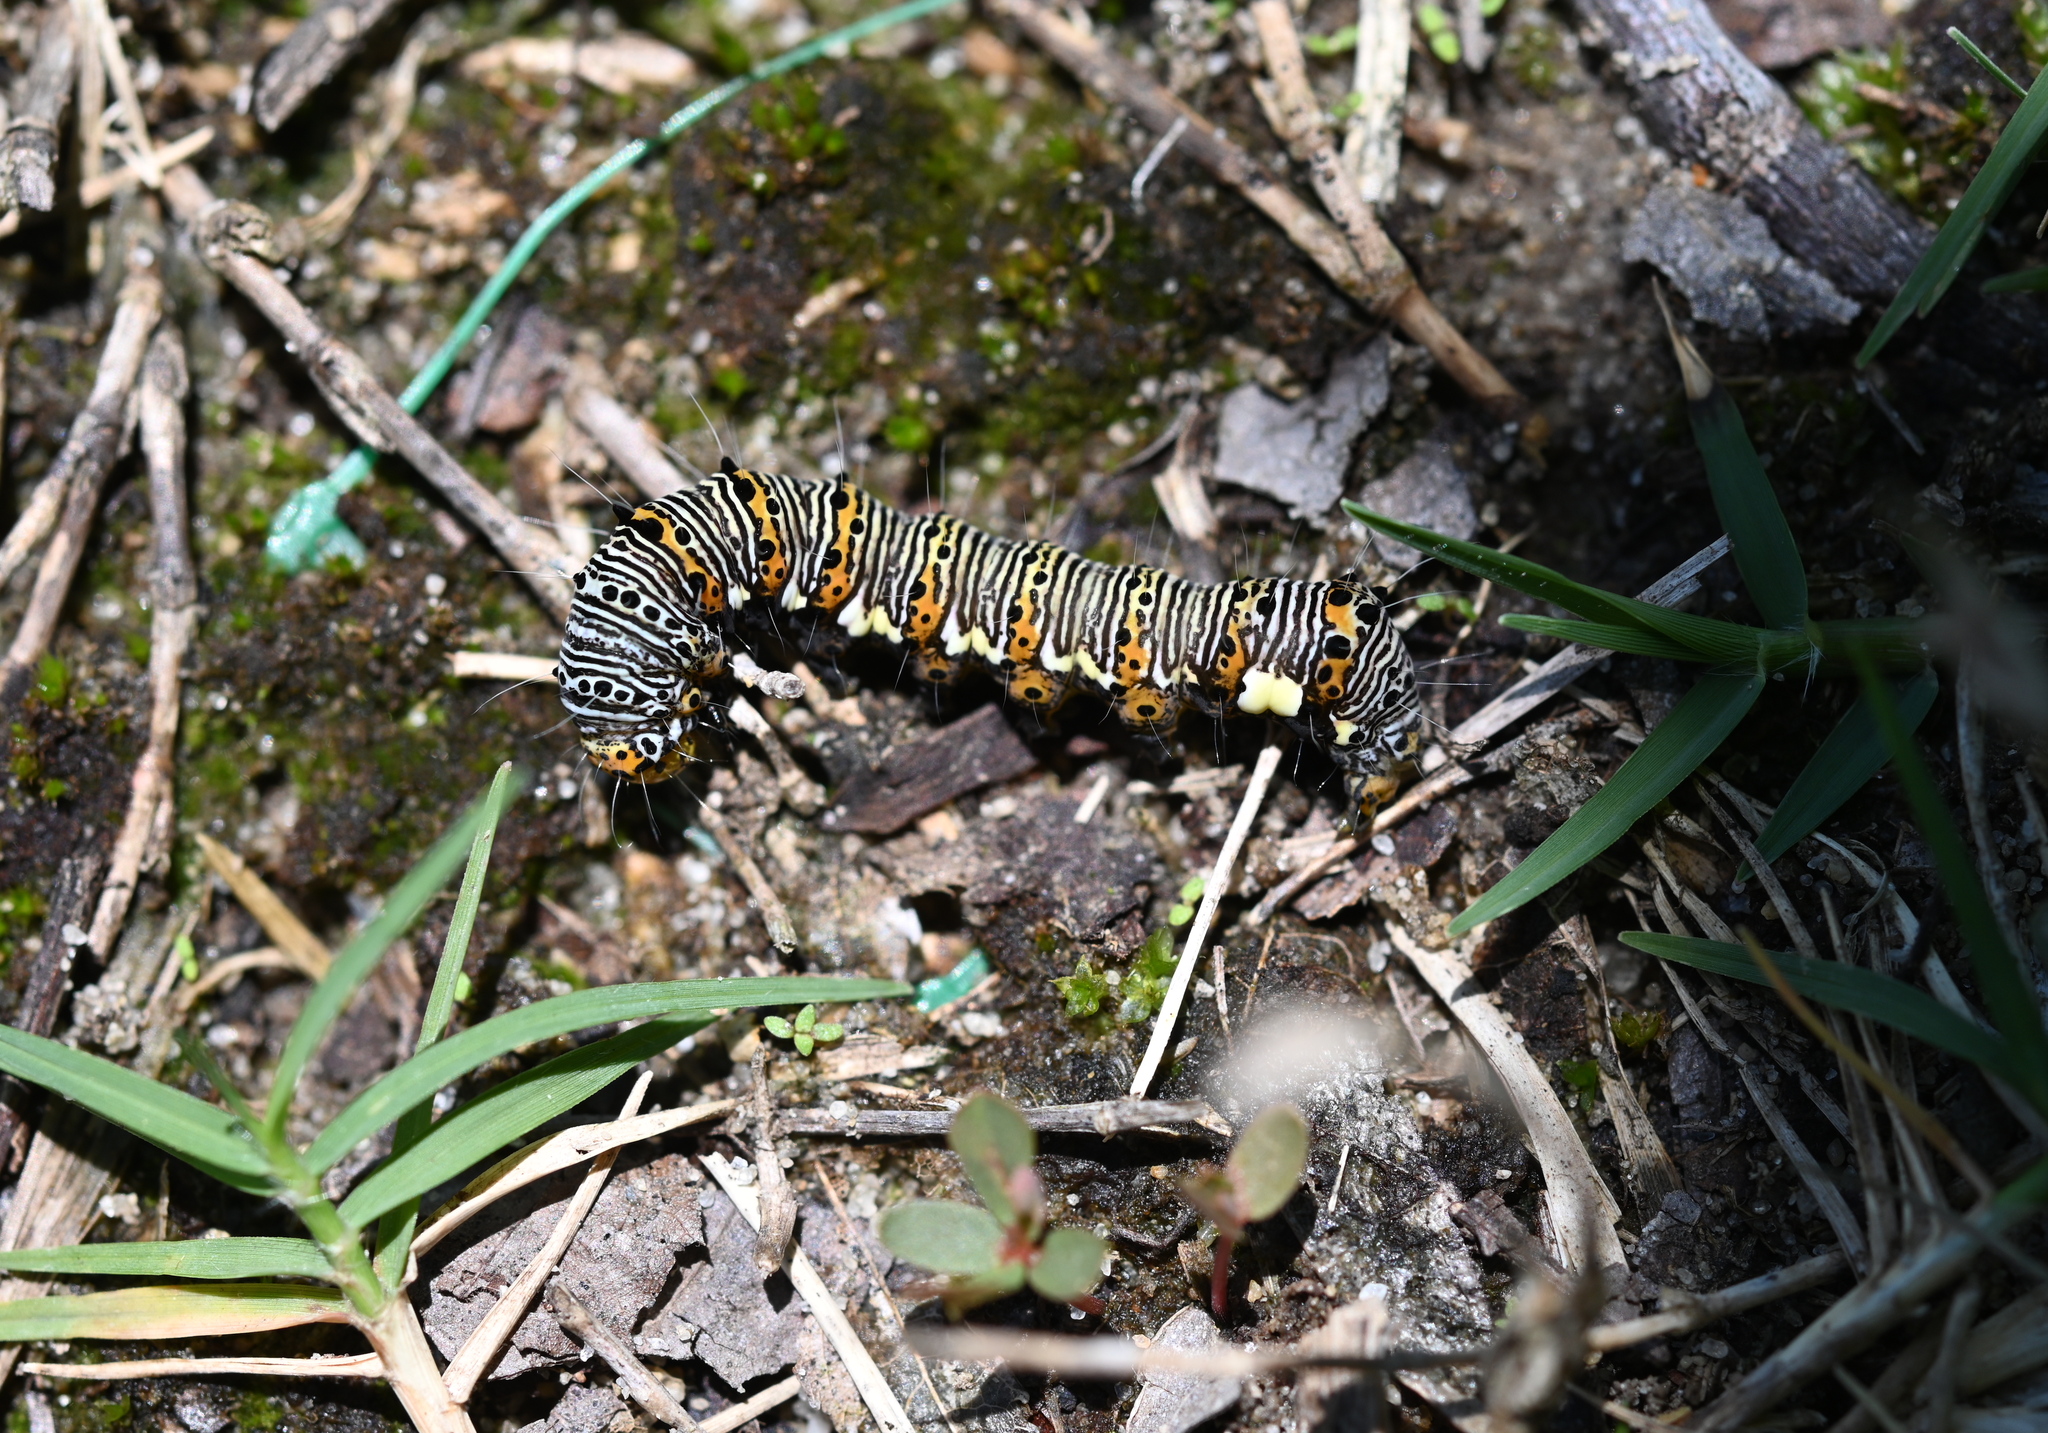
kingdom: Animalia
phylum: Arthropoda
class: Insecta
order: Lepidoptera
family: Noctuidae
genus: Alypia
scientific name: Alypia octomaculata
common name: Eight-spotted forester
